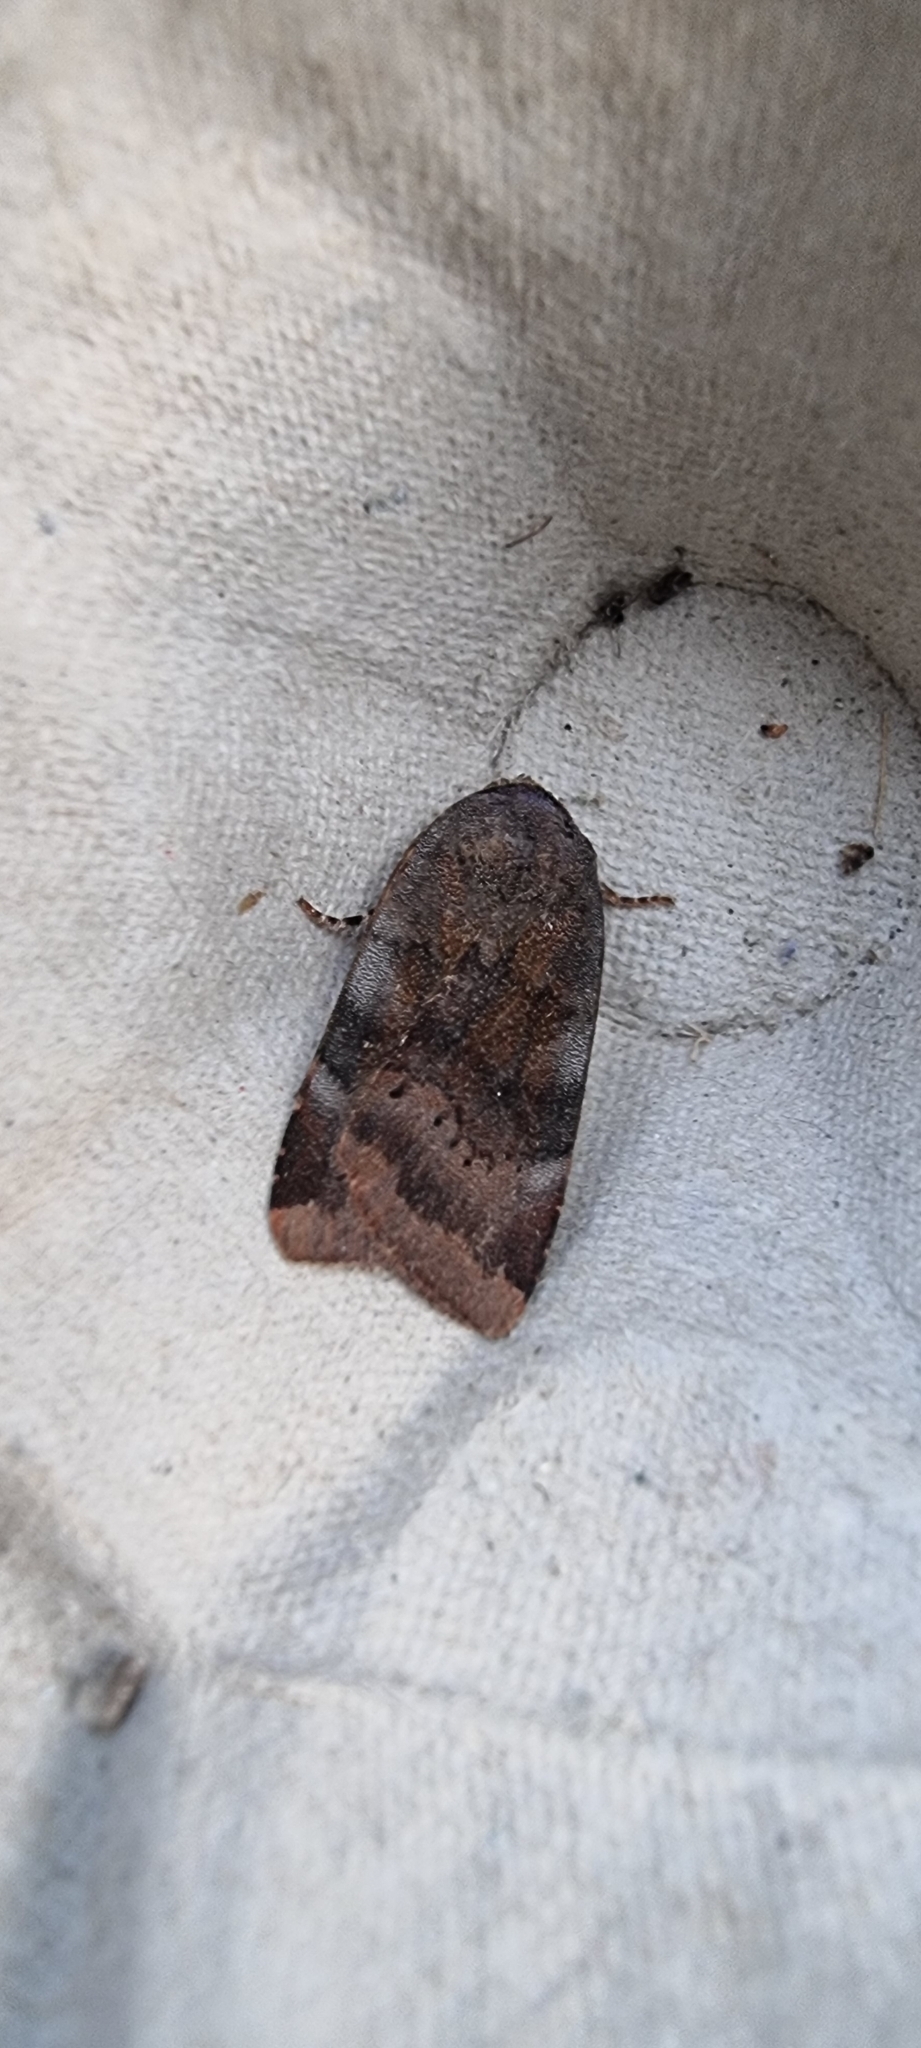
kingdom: Animalia
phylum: Arthropoda
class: Insecta
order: Lepidoptera
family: Noctuidae
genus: Noctua
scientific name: Noctua janthe
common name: Lesser broad-bordered yellow underwing
